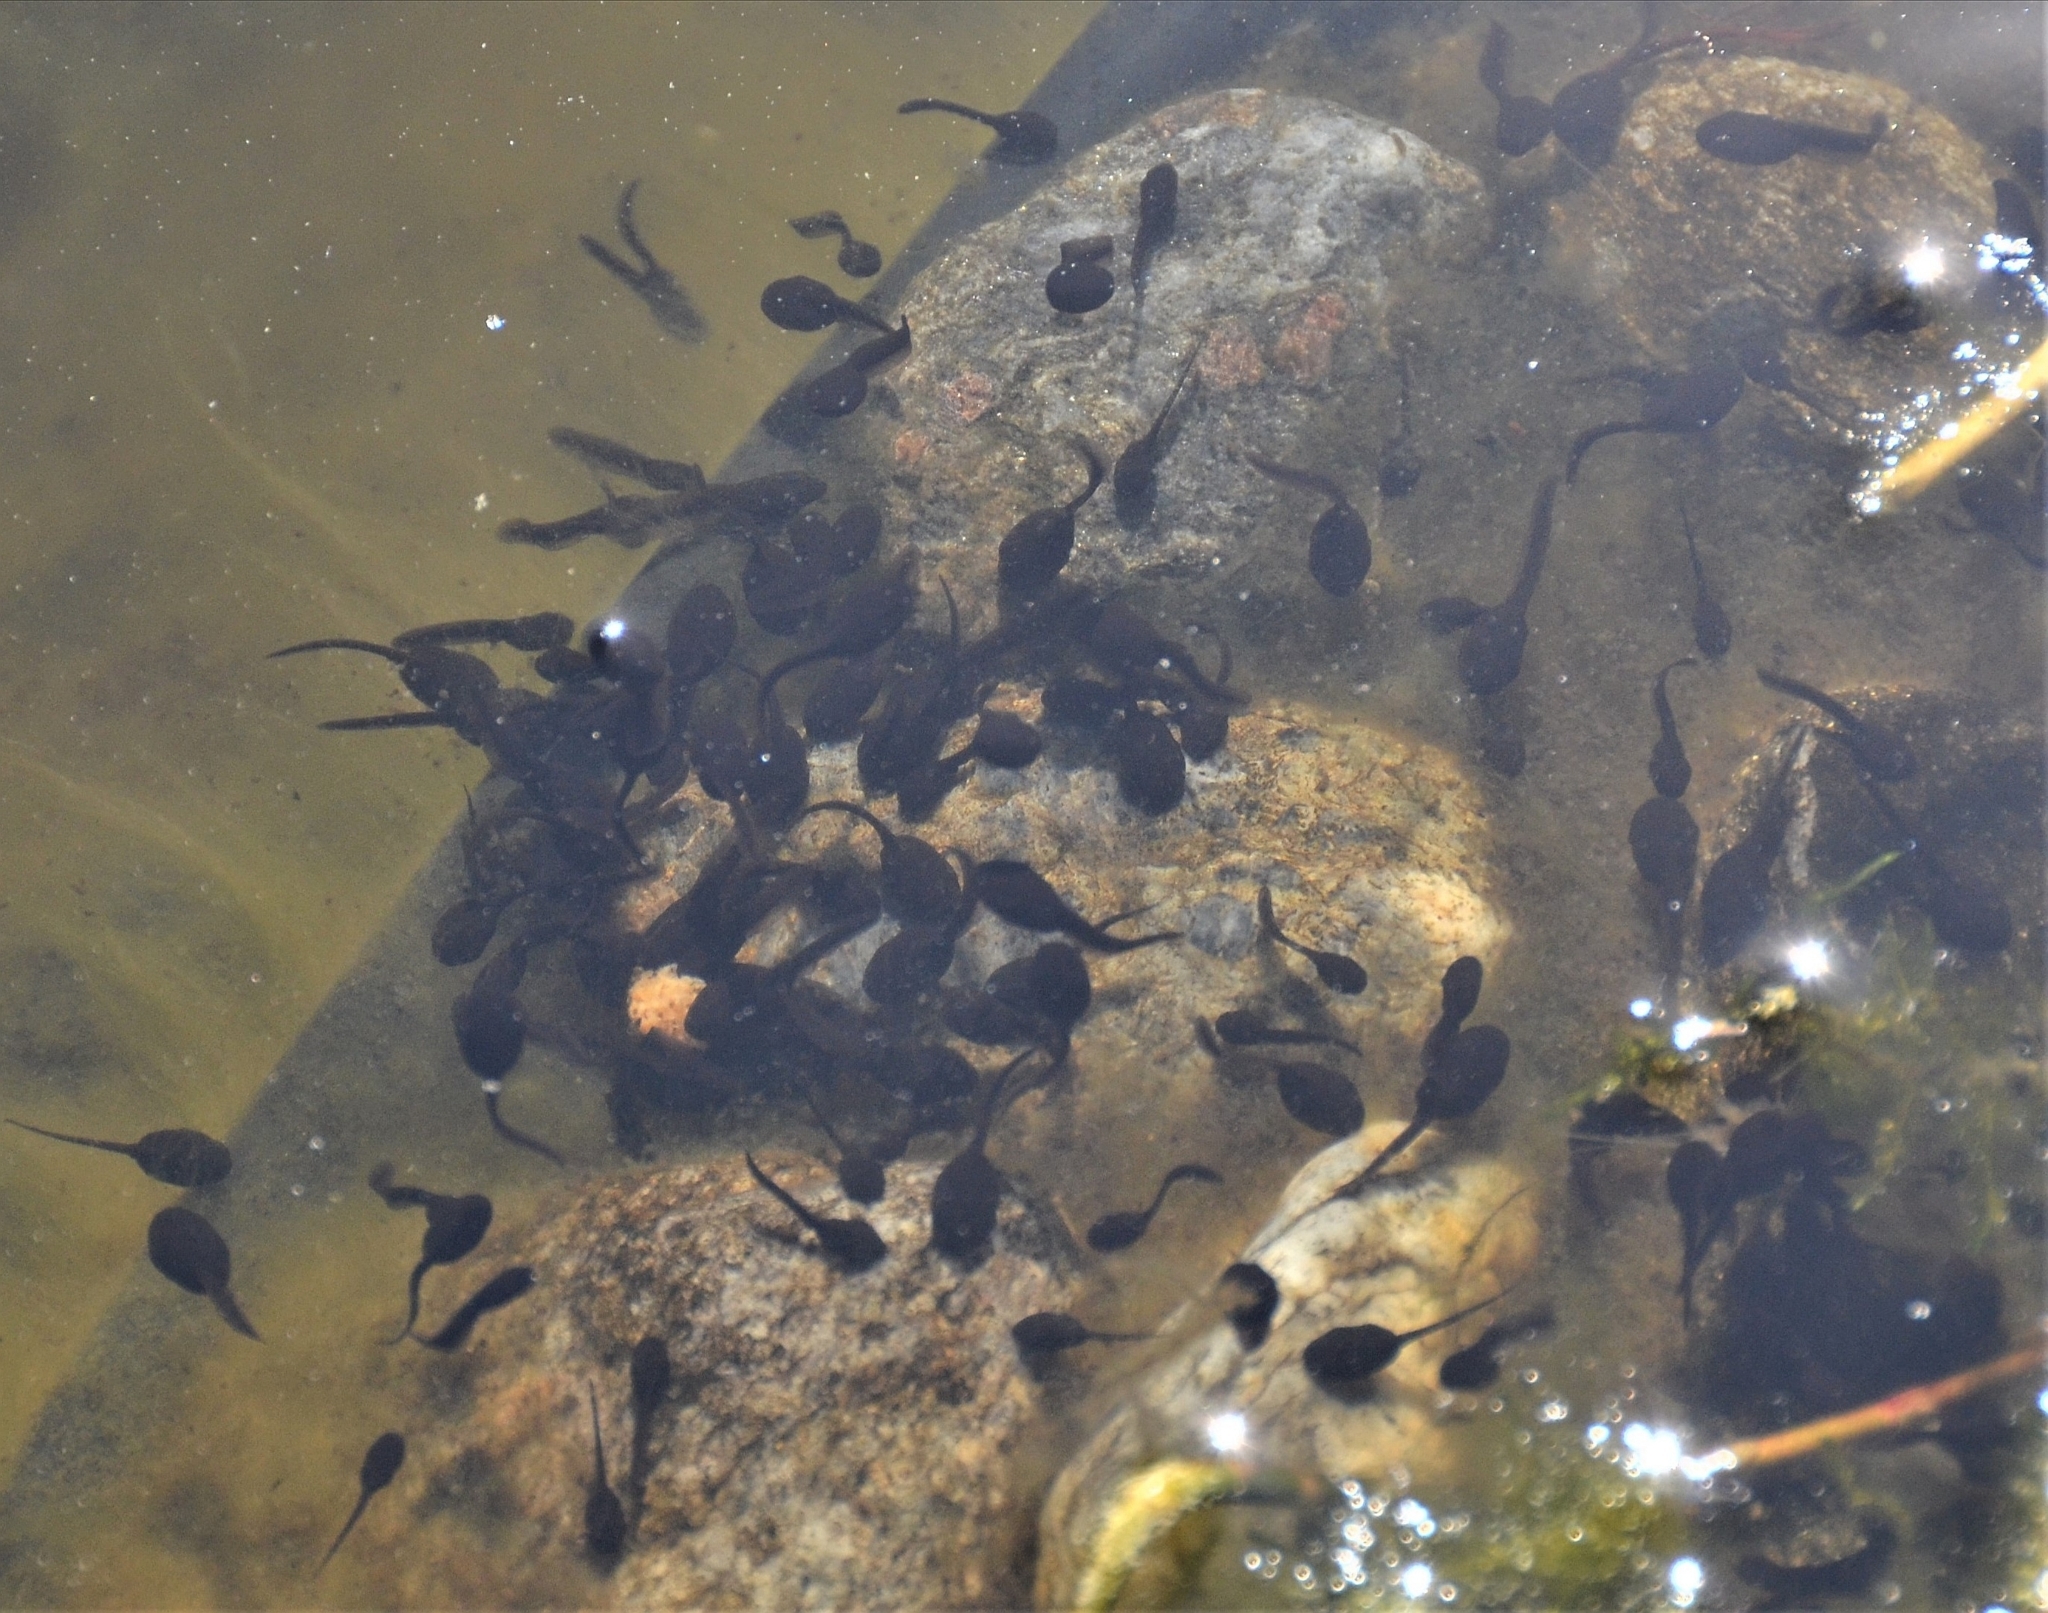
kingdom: Animalia
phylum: Chordata
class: Amphibia
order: Anura
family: Bufonidae
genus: Bufo
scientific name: Bufo bufo
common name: Common toad
